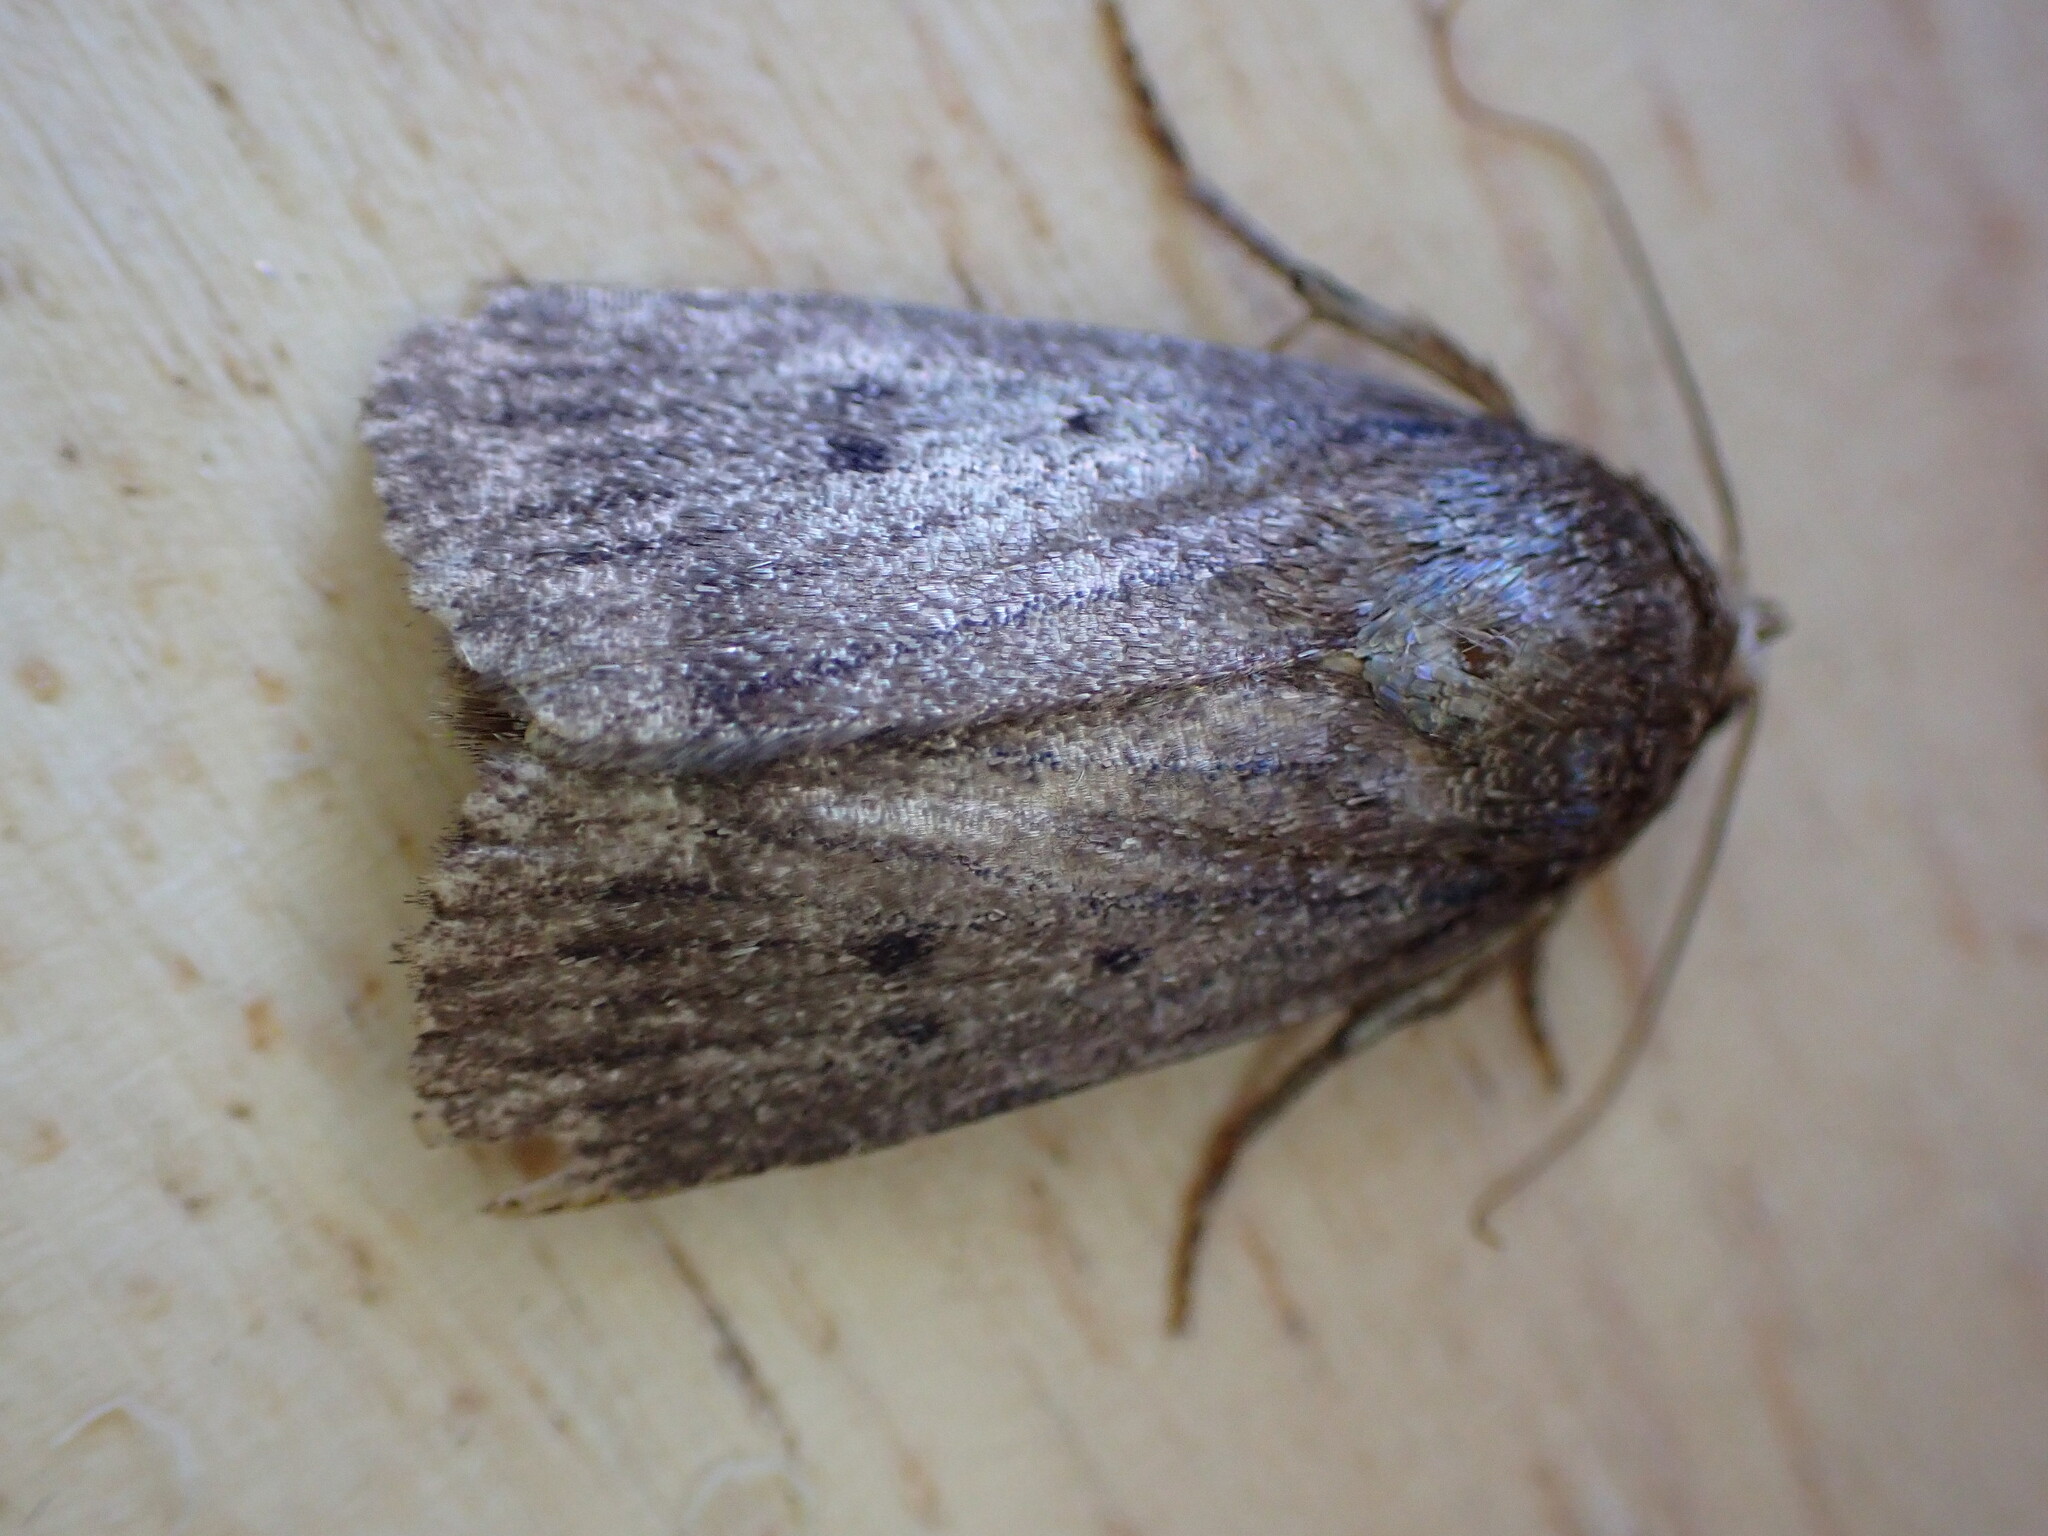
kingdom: Animalia
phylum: Arthropoda
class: Insecta
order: Lepidoptera
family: Noctuidae
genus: Amphipyra
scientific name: Amphipyra tragopoginis
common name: Mouse moth
